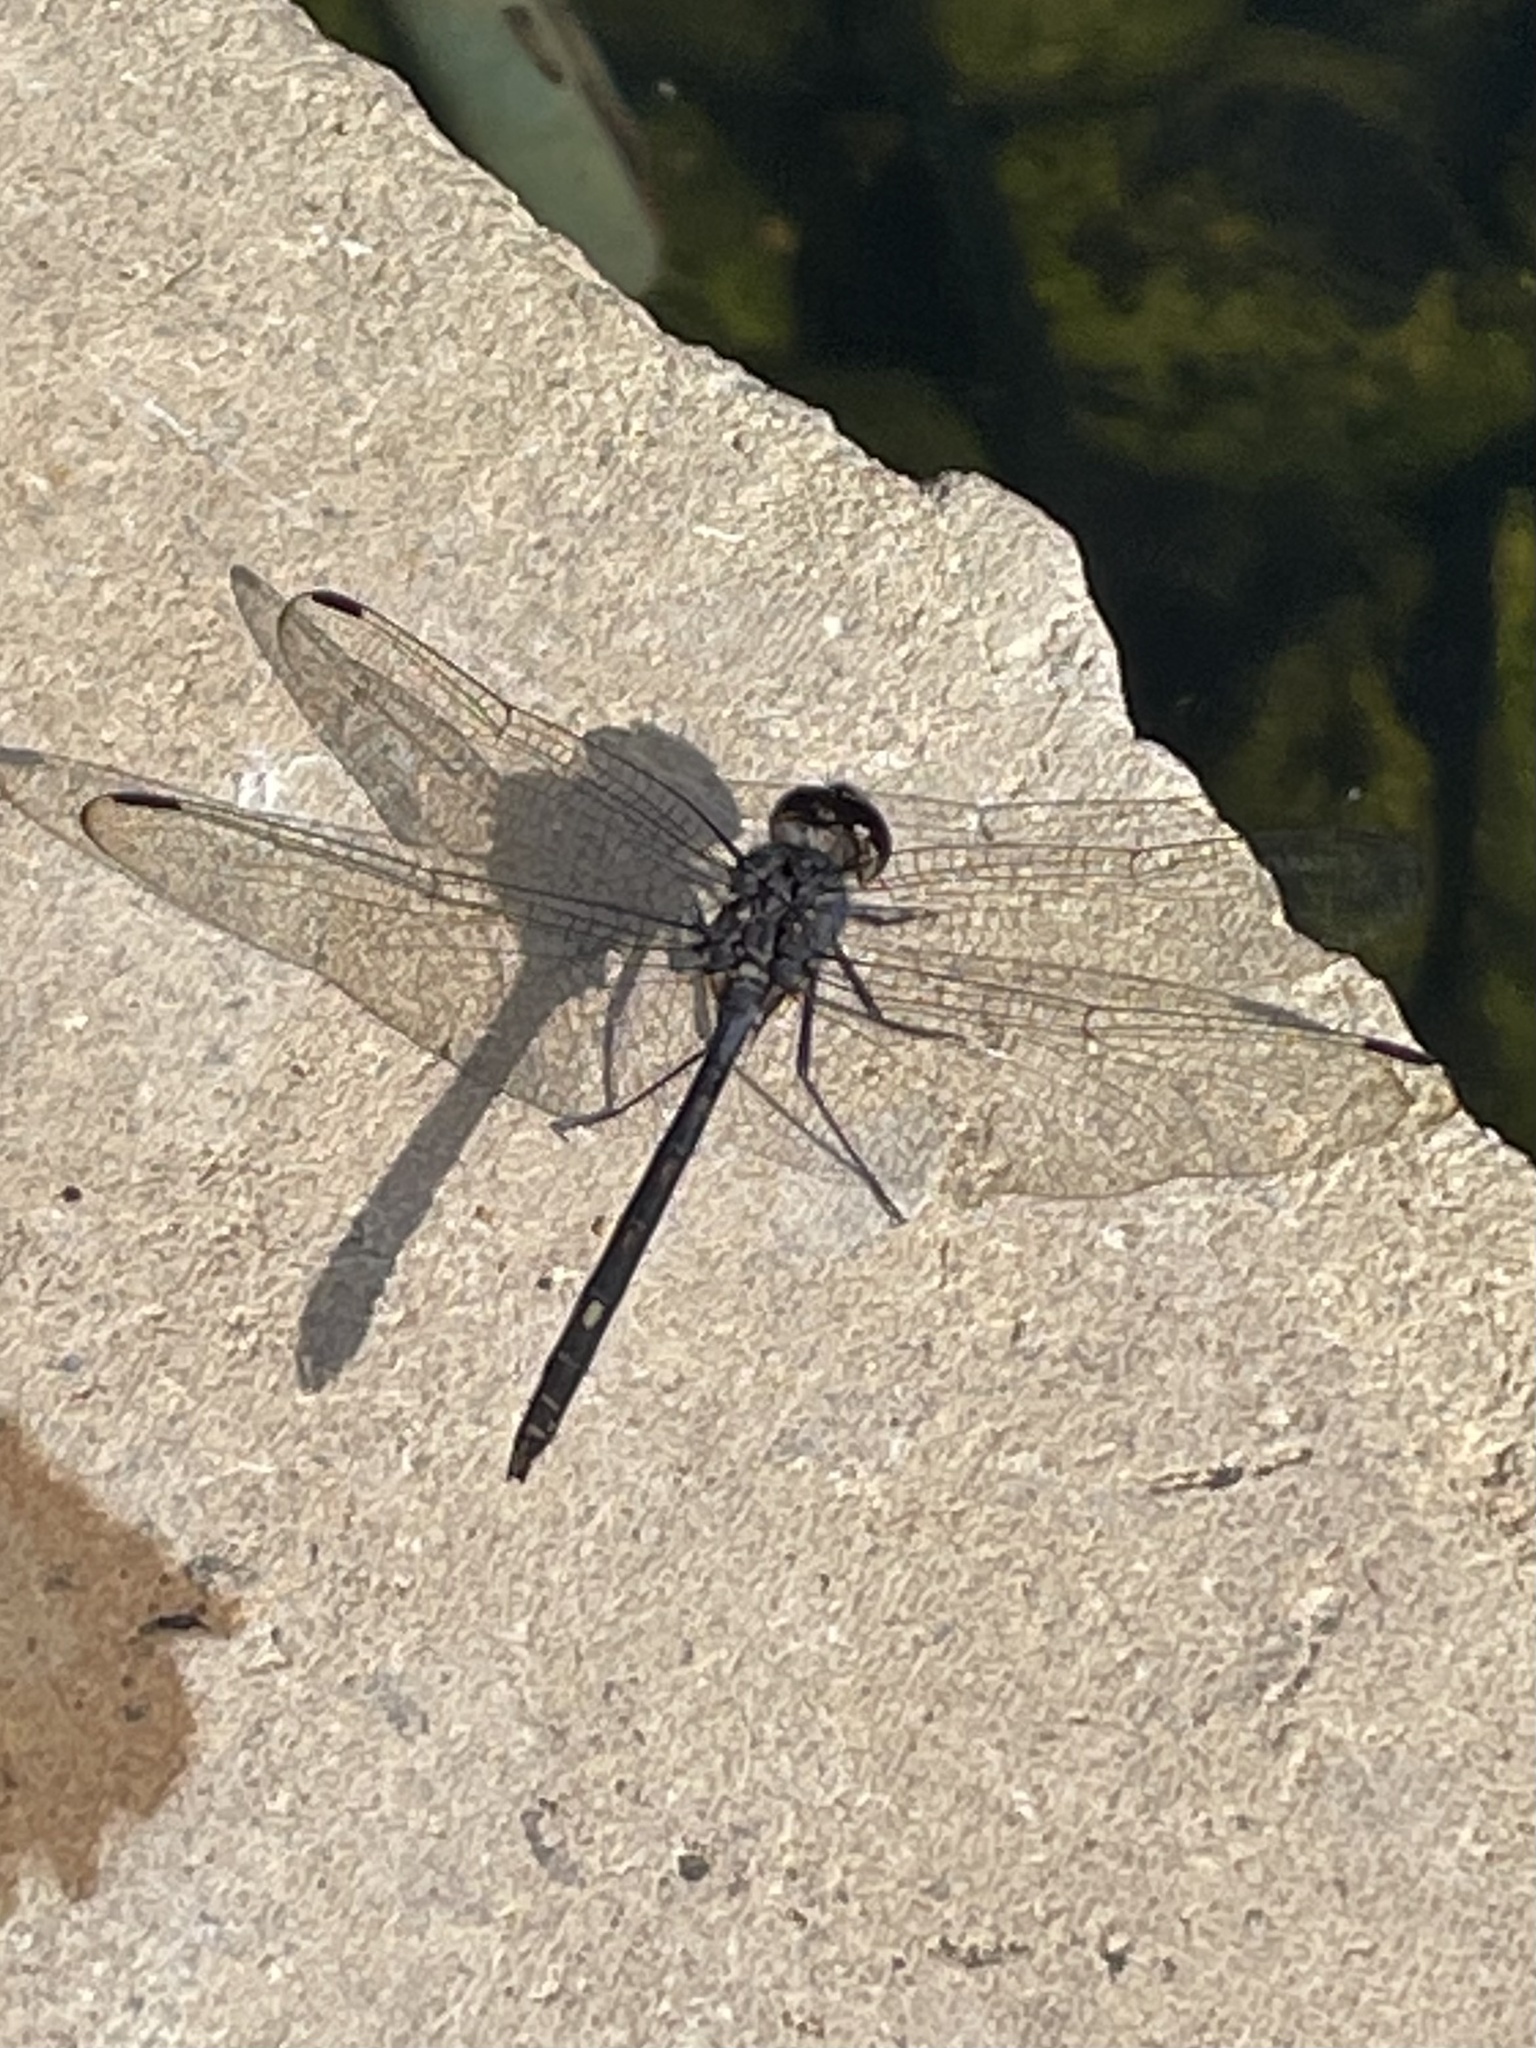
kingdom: Animalia
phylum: Arthropoda
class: Insecta
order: Odonata
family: Libellulidae
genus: Dythemis
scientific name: Dythemis nigrescens
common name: Black setwing
